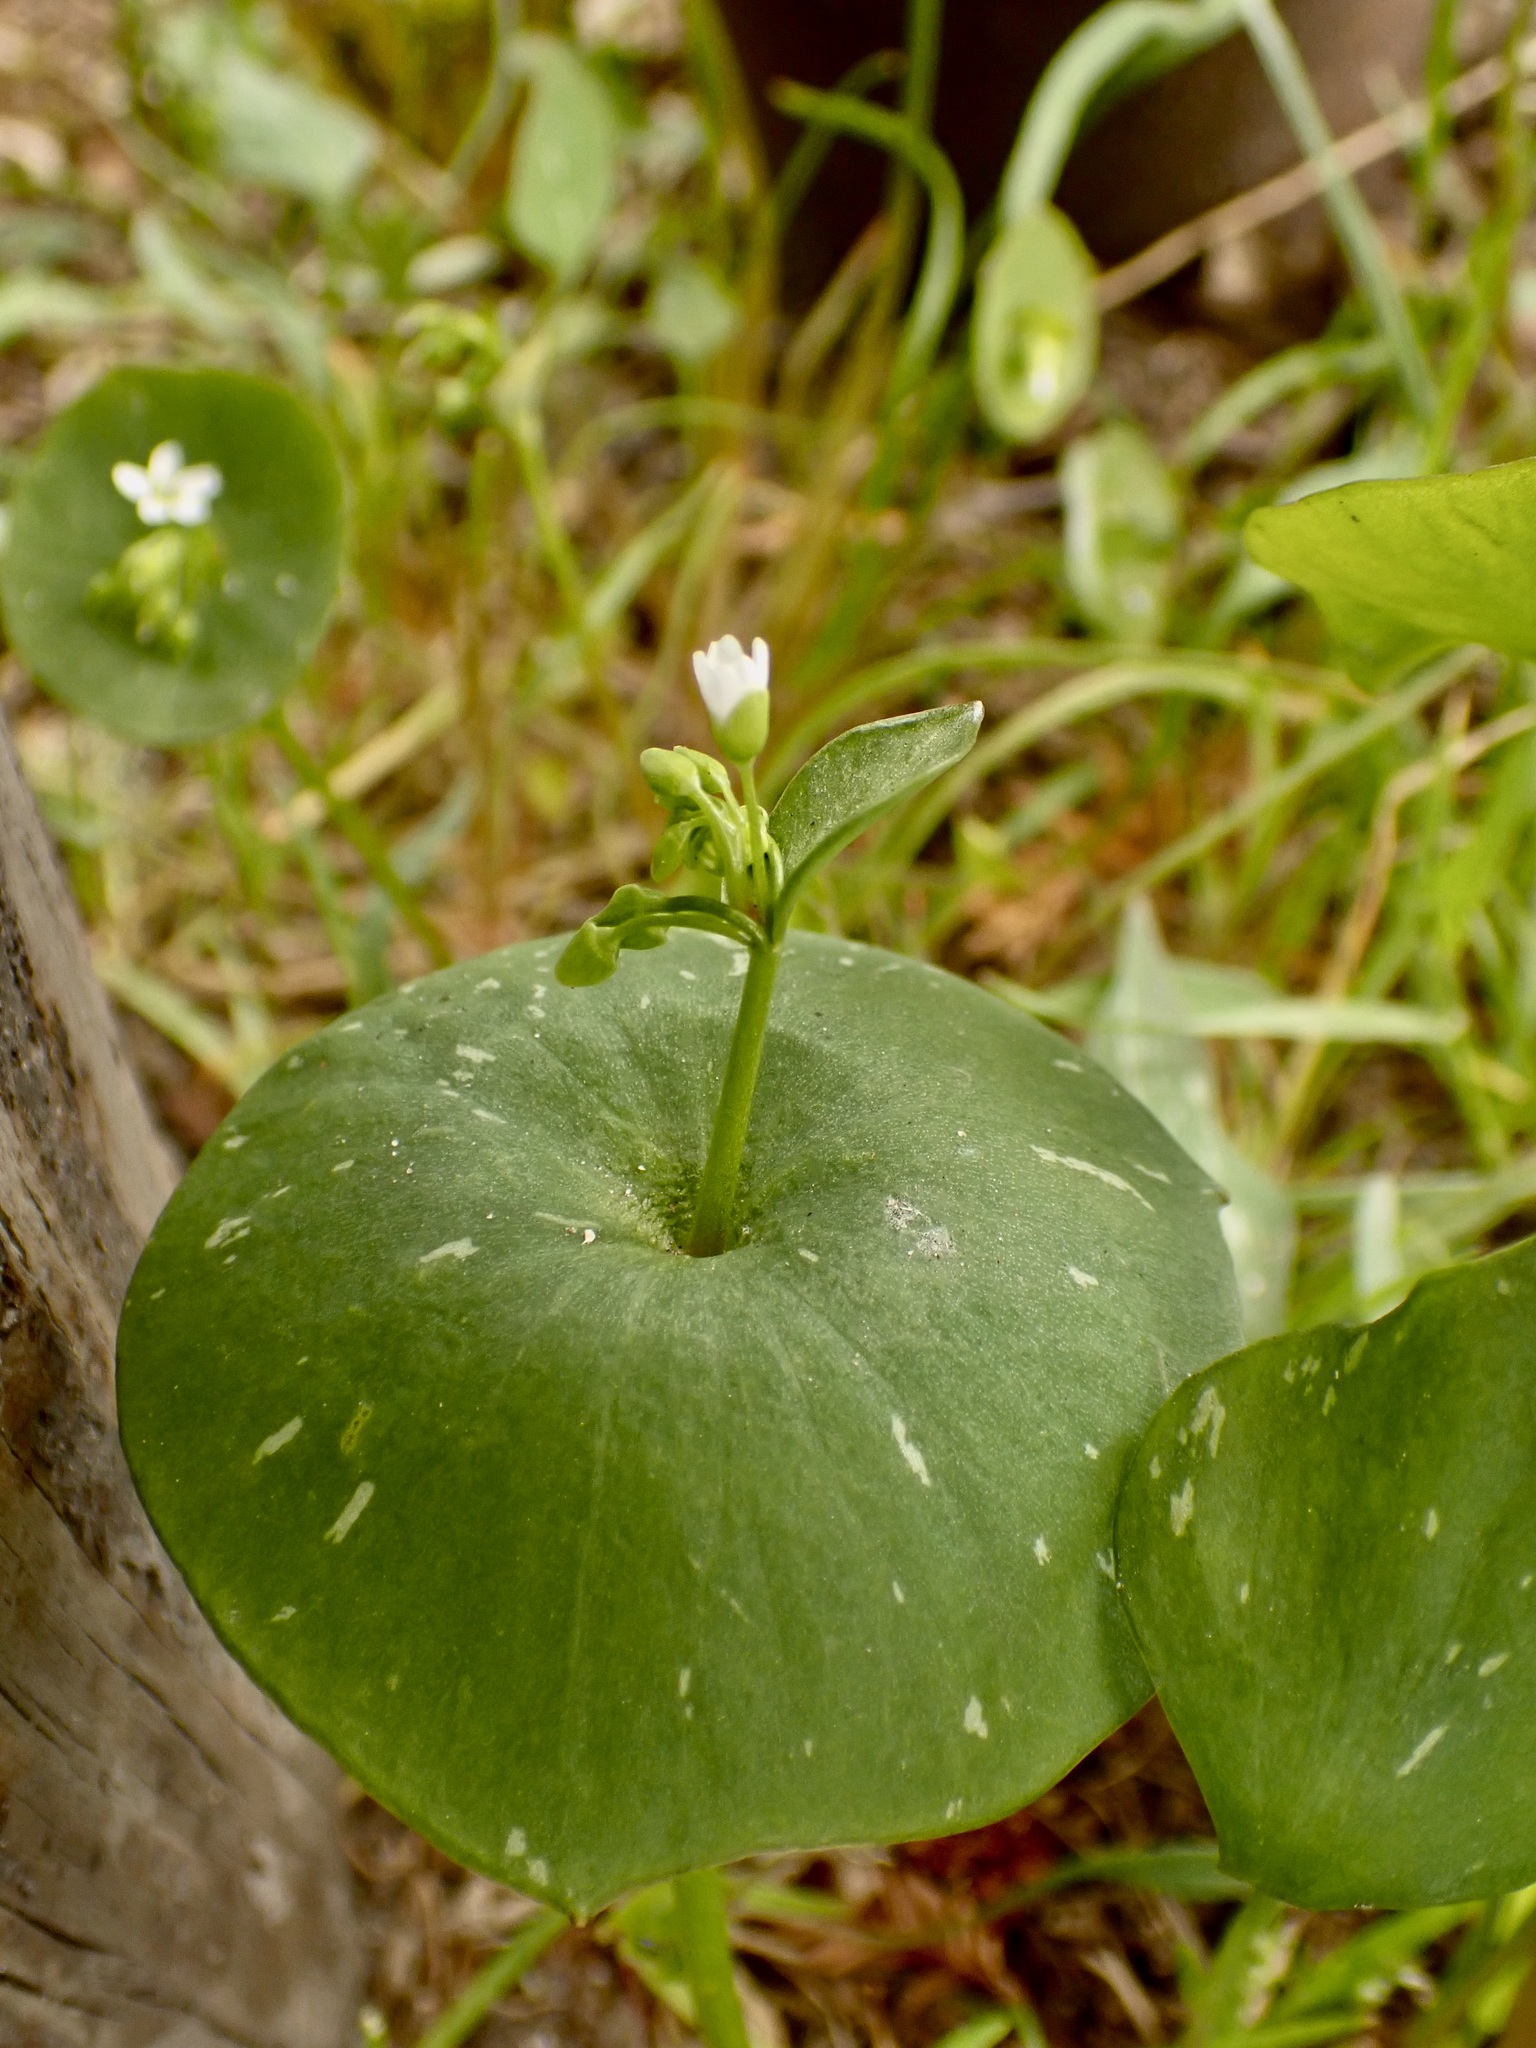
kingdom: Plantae
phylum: Tracheophyta
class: Magnoliopsida
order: Caryophyllales
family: Montiaceae
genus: Claytonia
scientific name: Claytonia perfoliata
